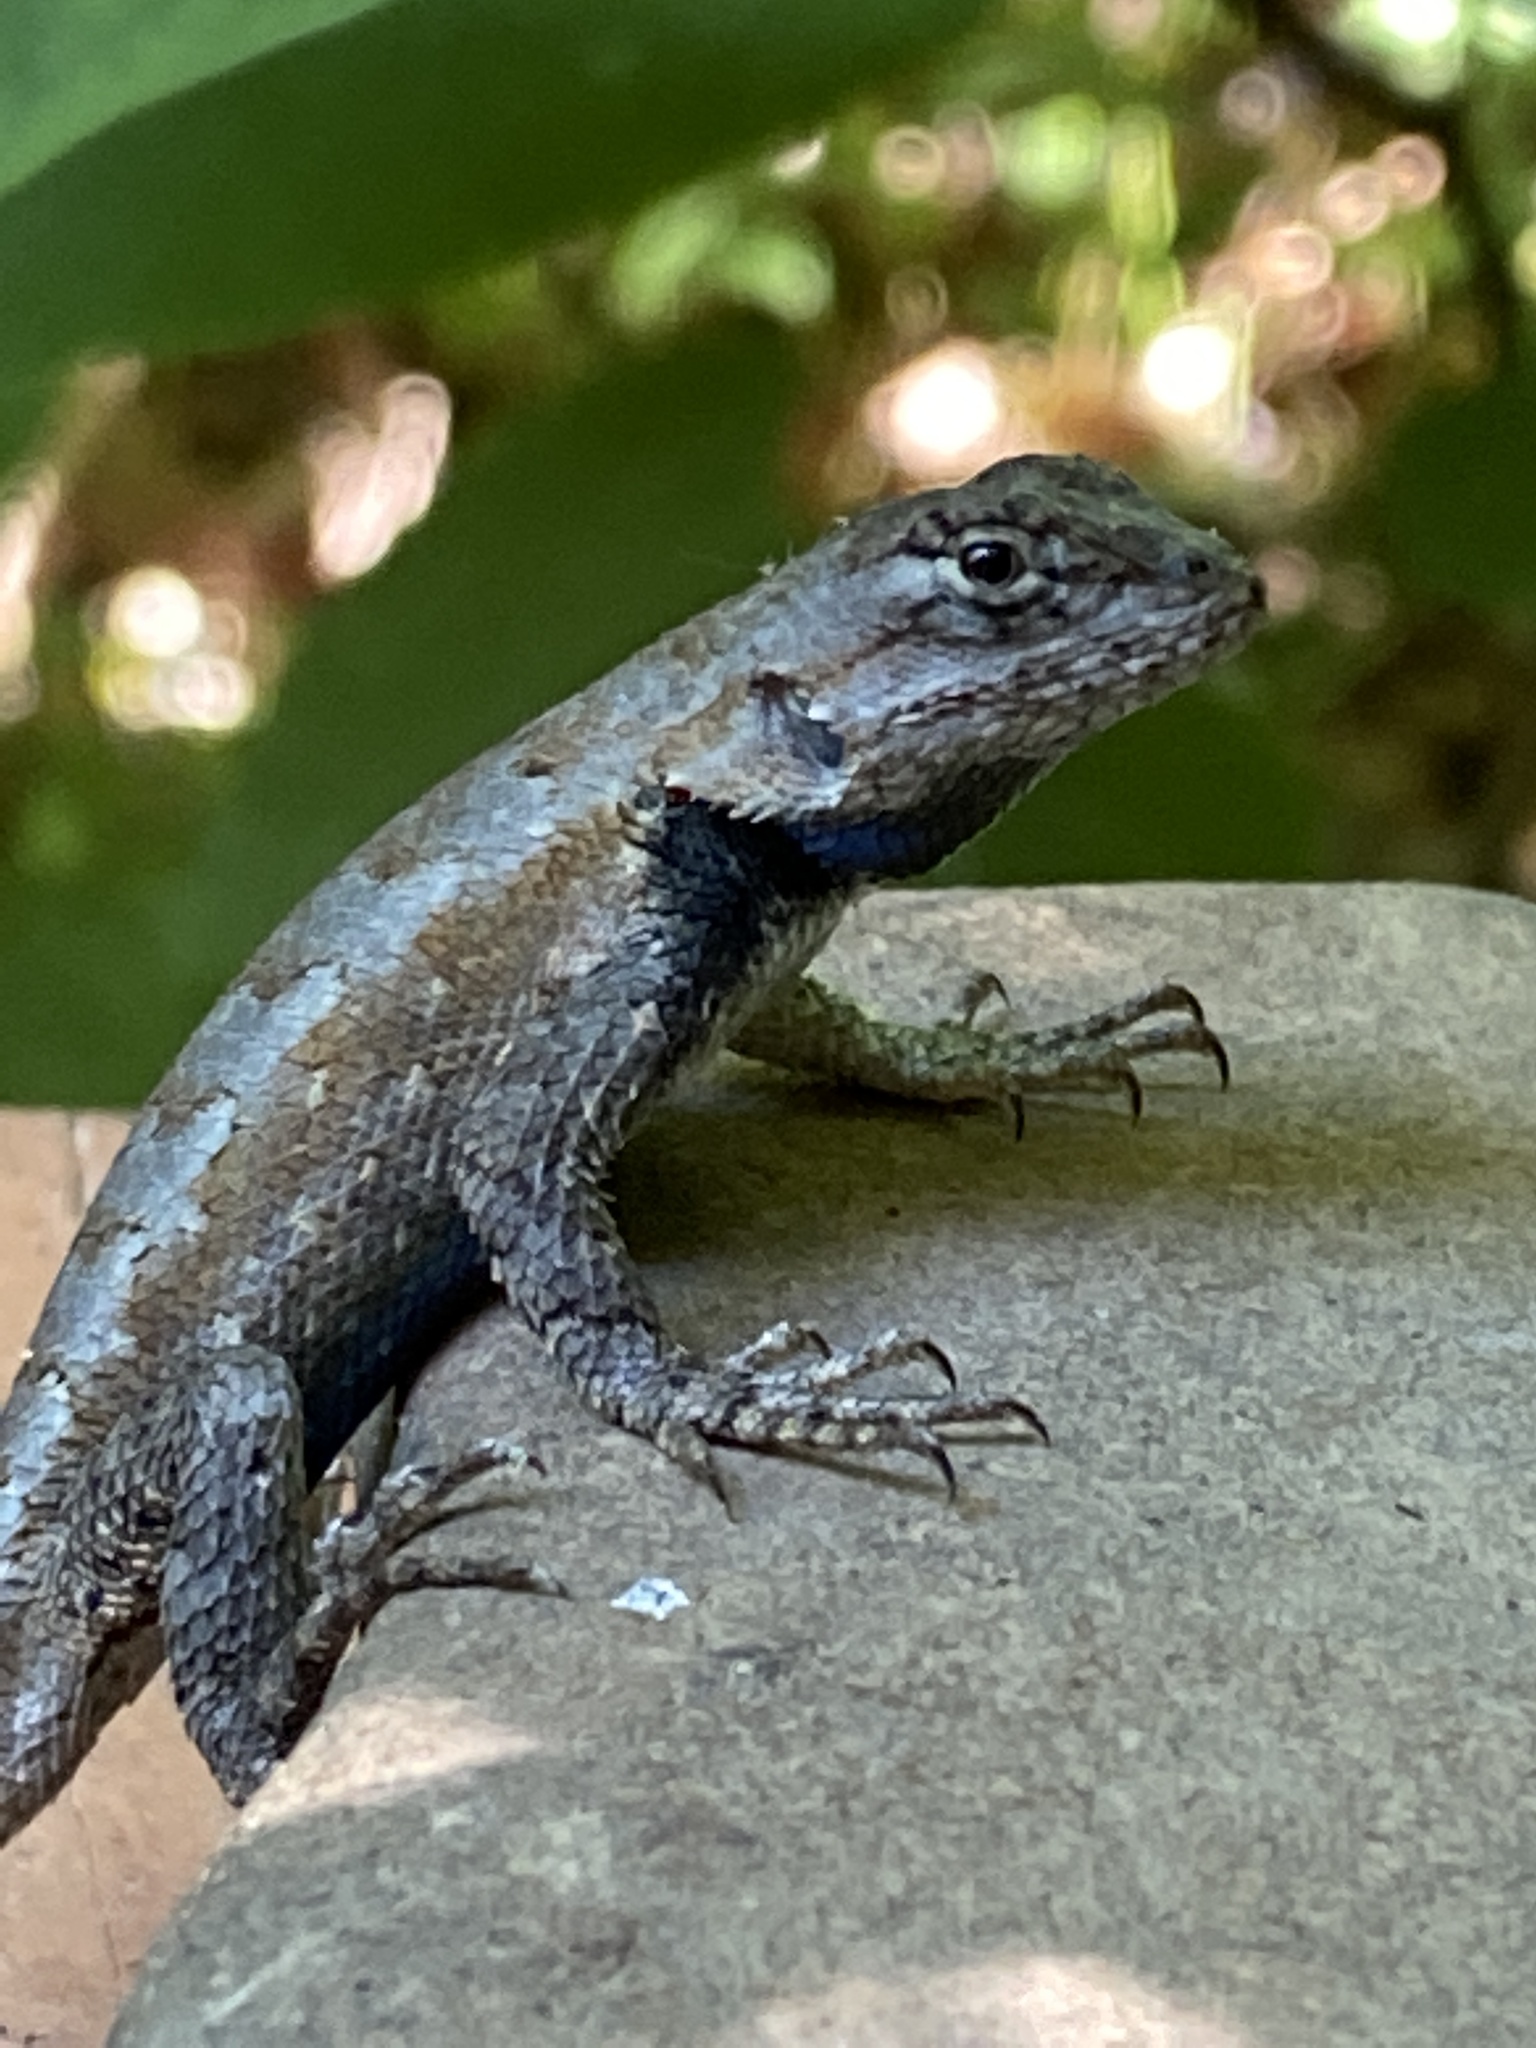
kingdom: Animalia
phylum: Chordata
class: Squamata
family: Phrynosomatidae
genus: Sceloporus
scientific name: Sceloporus undulatus
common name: Eastern fence lizard
